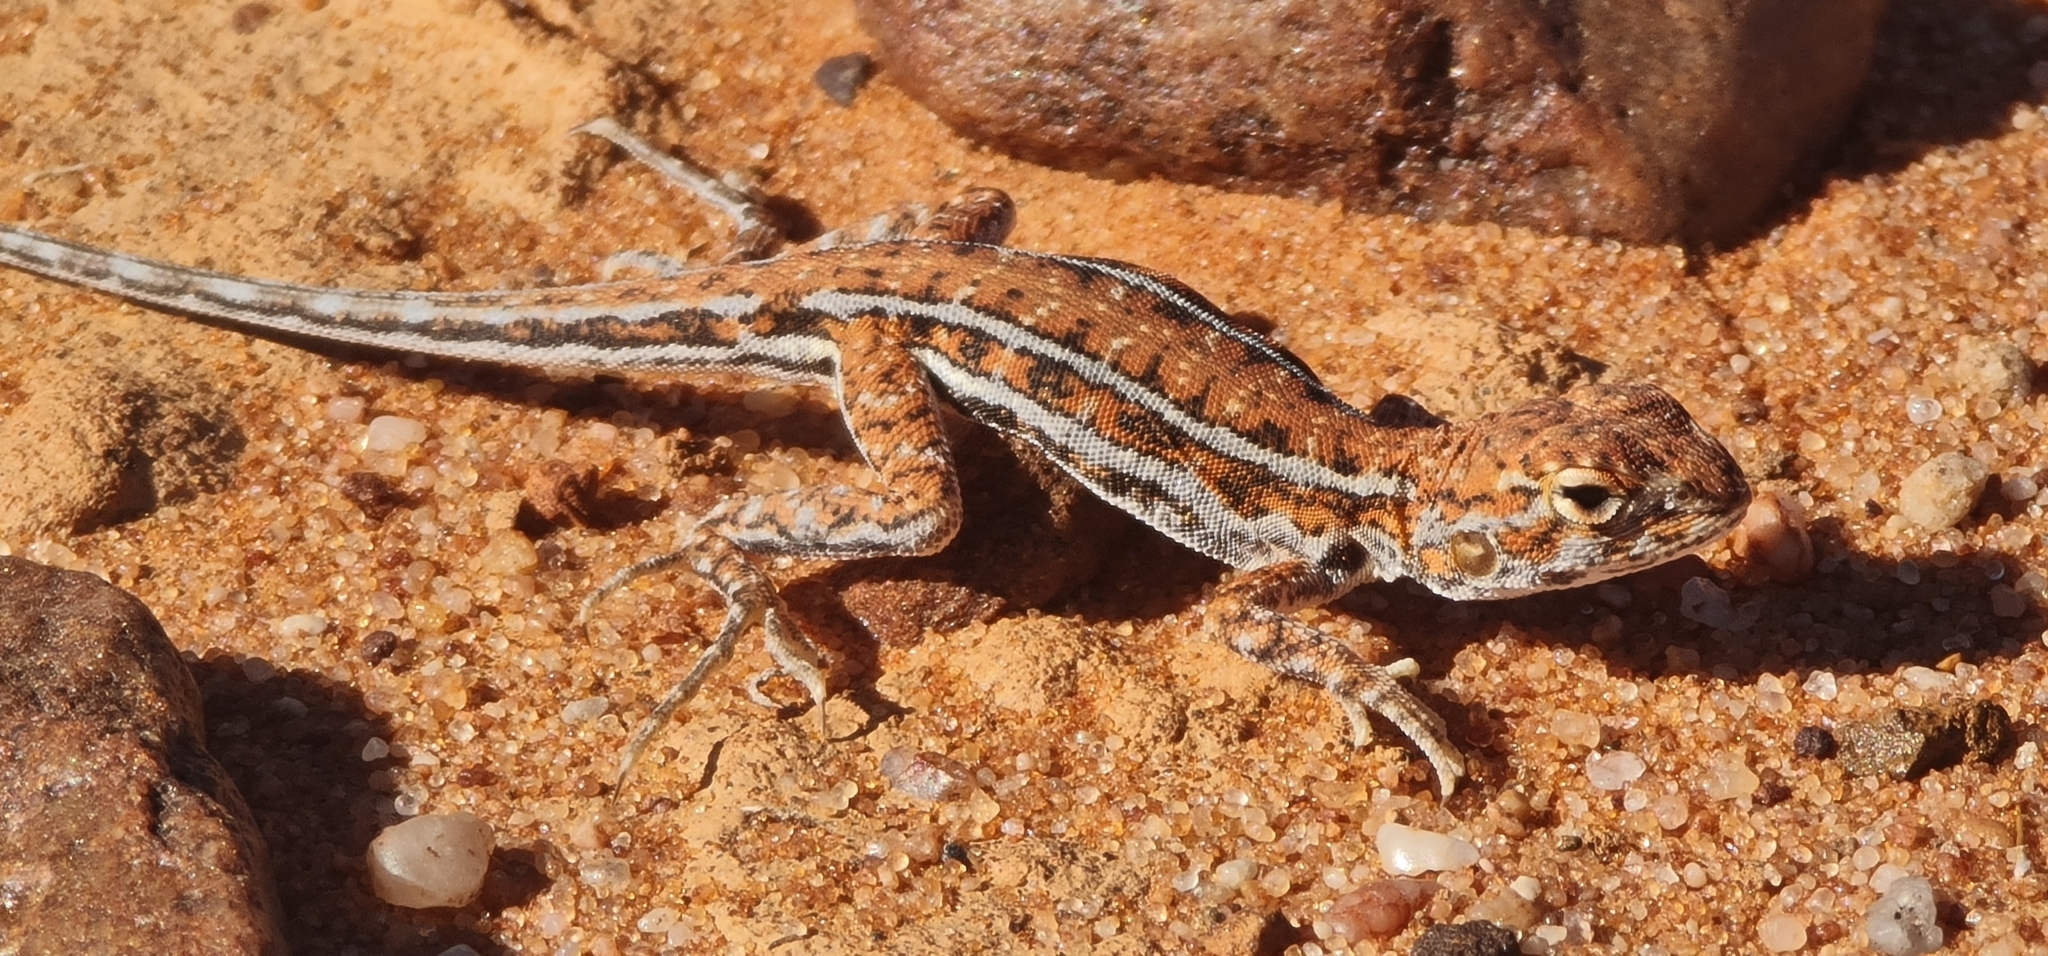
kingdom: Animalia
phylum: Chordata
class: Squamata
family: Agamidae
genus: Ctenophorus
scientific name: Ctenophorus
